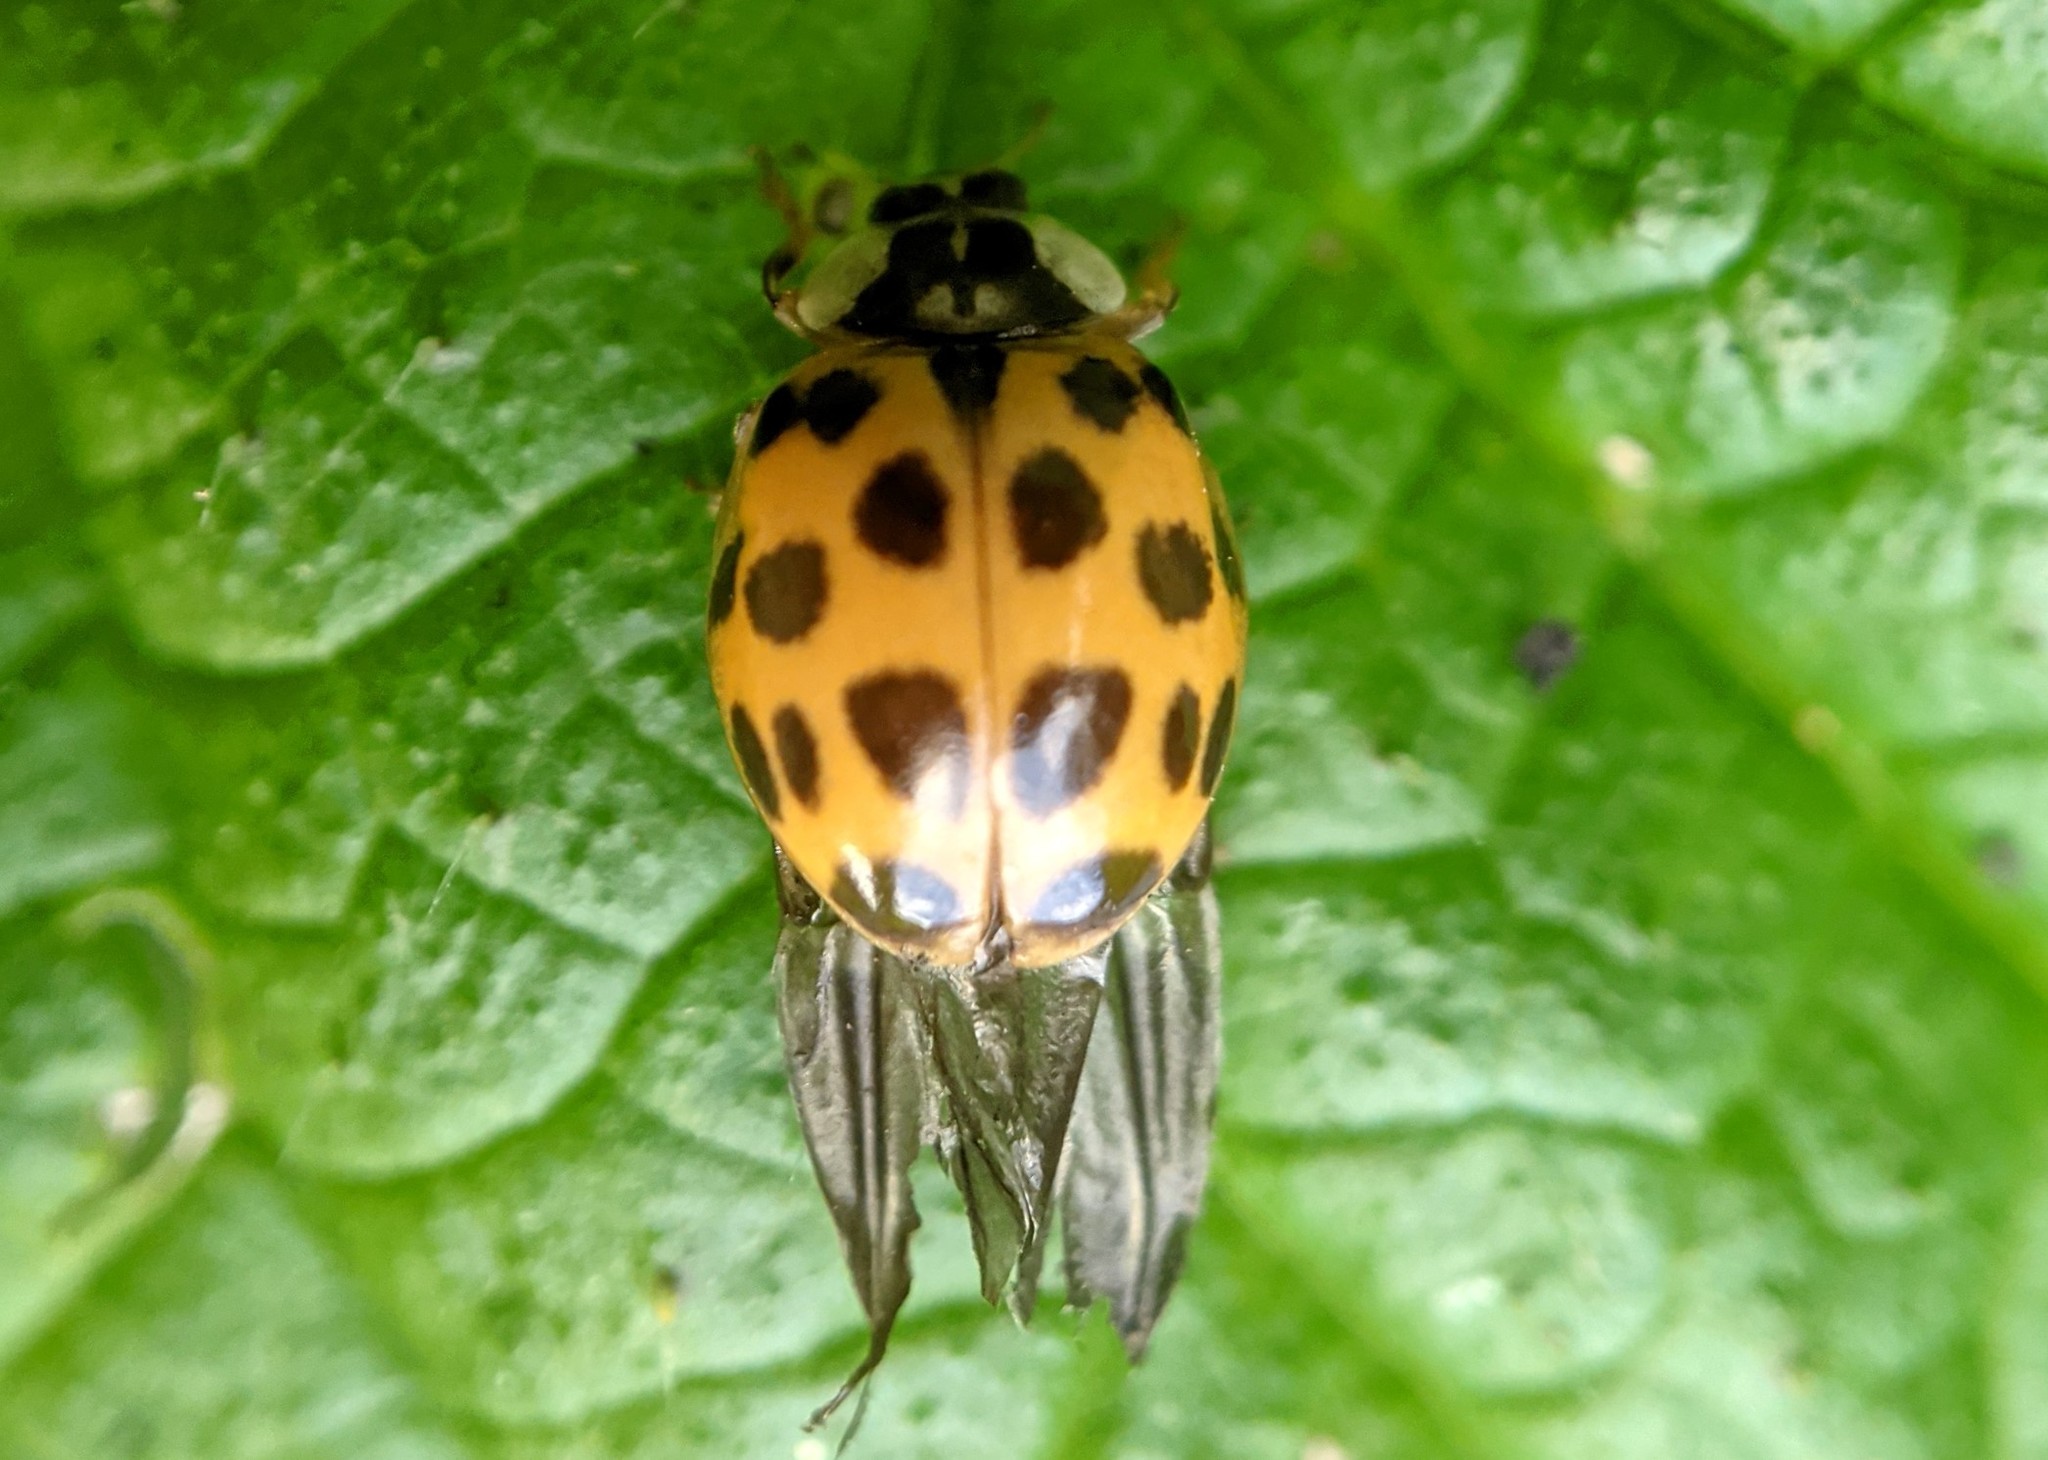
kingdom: Animalia
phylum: Arthropoda
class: Insecta
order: Coleoptera
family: Coccinellidae
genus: Harmonia
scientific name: Harmonia axyridis
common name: Harlequin ladybird
